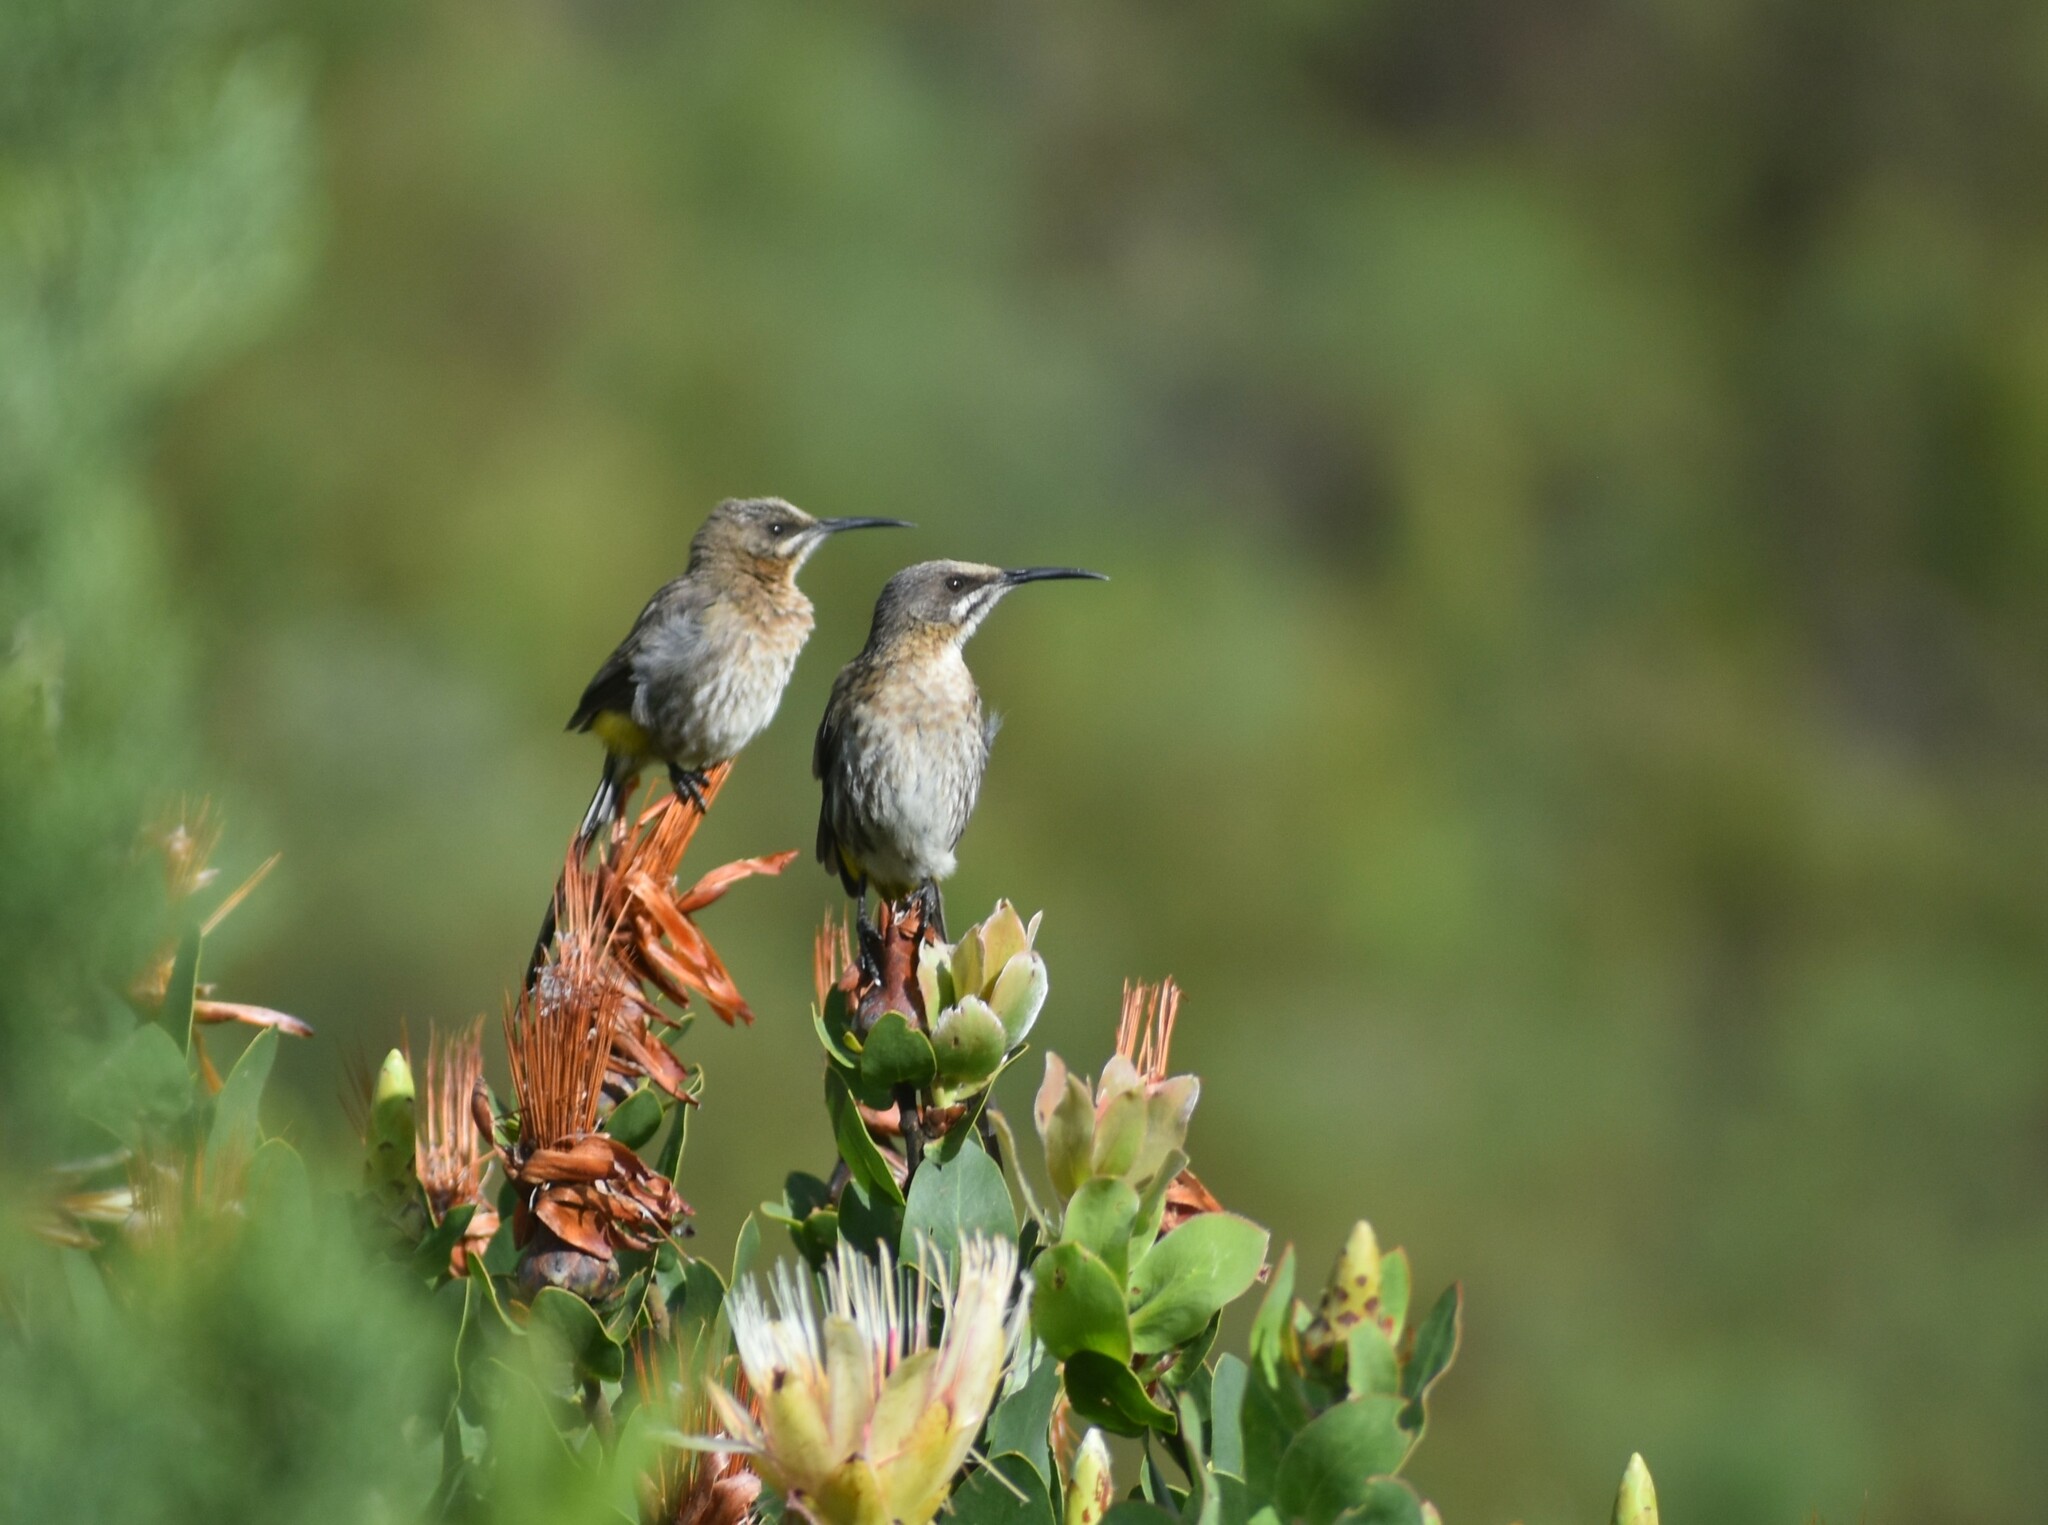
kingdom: Animalia
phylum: Chordata
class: Aves
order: Passeriformes
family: Promeropidae
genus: Promerops
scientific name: Promerops cafer
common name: Cape sugarbird
